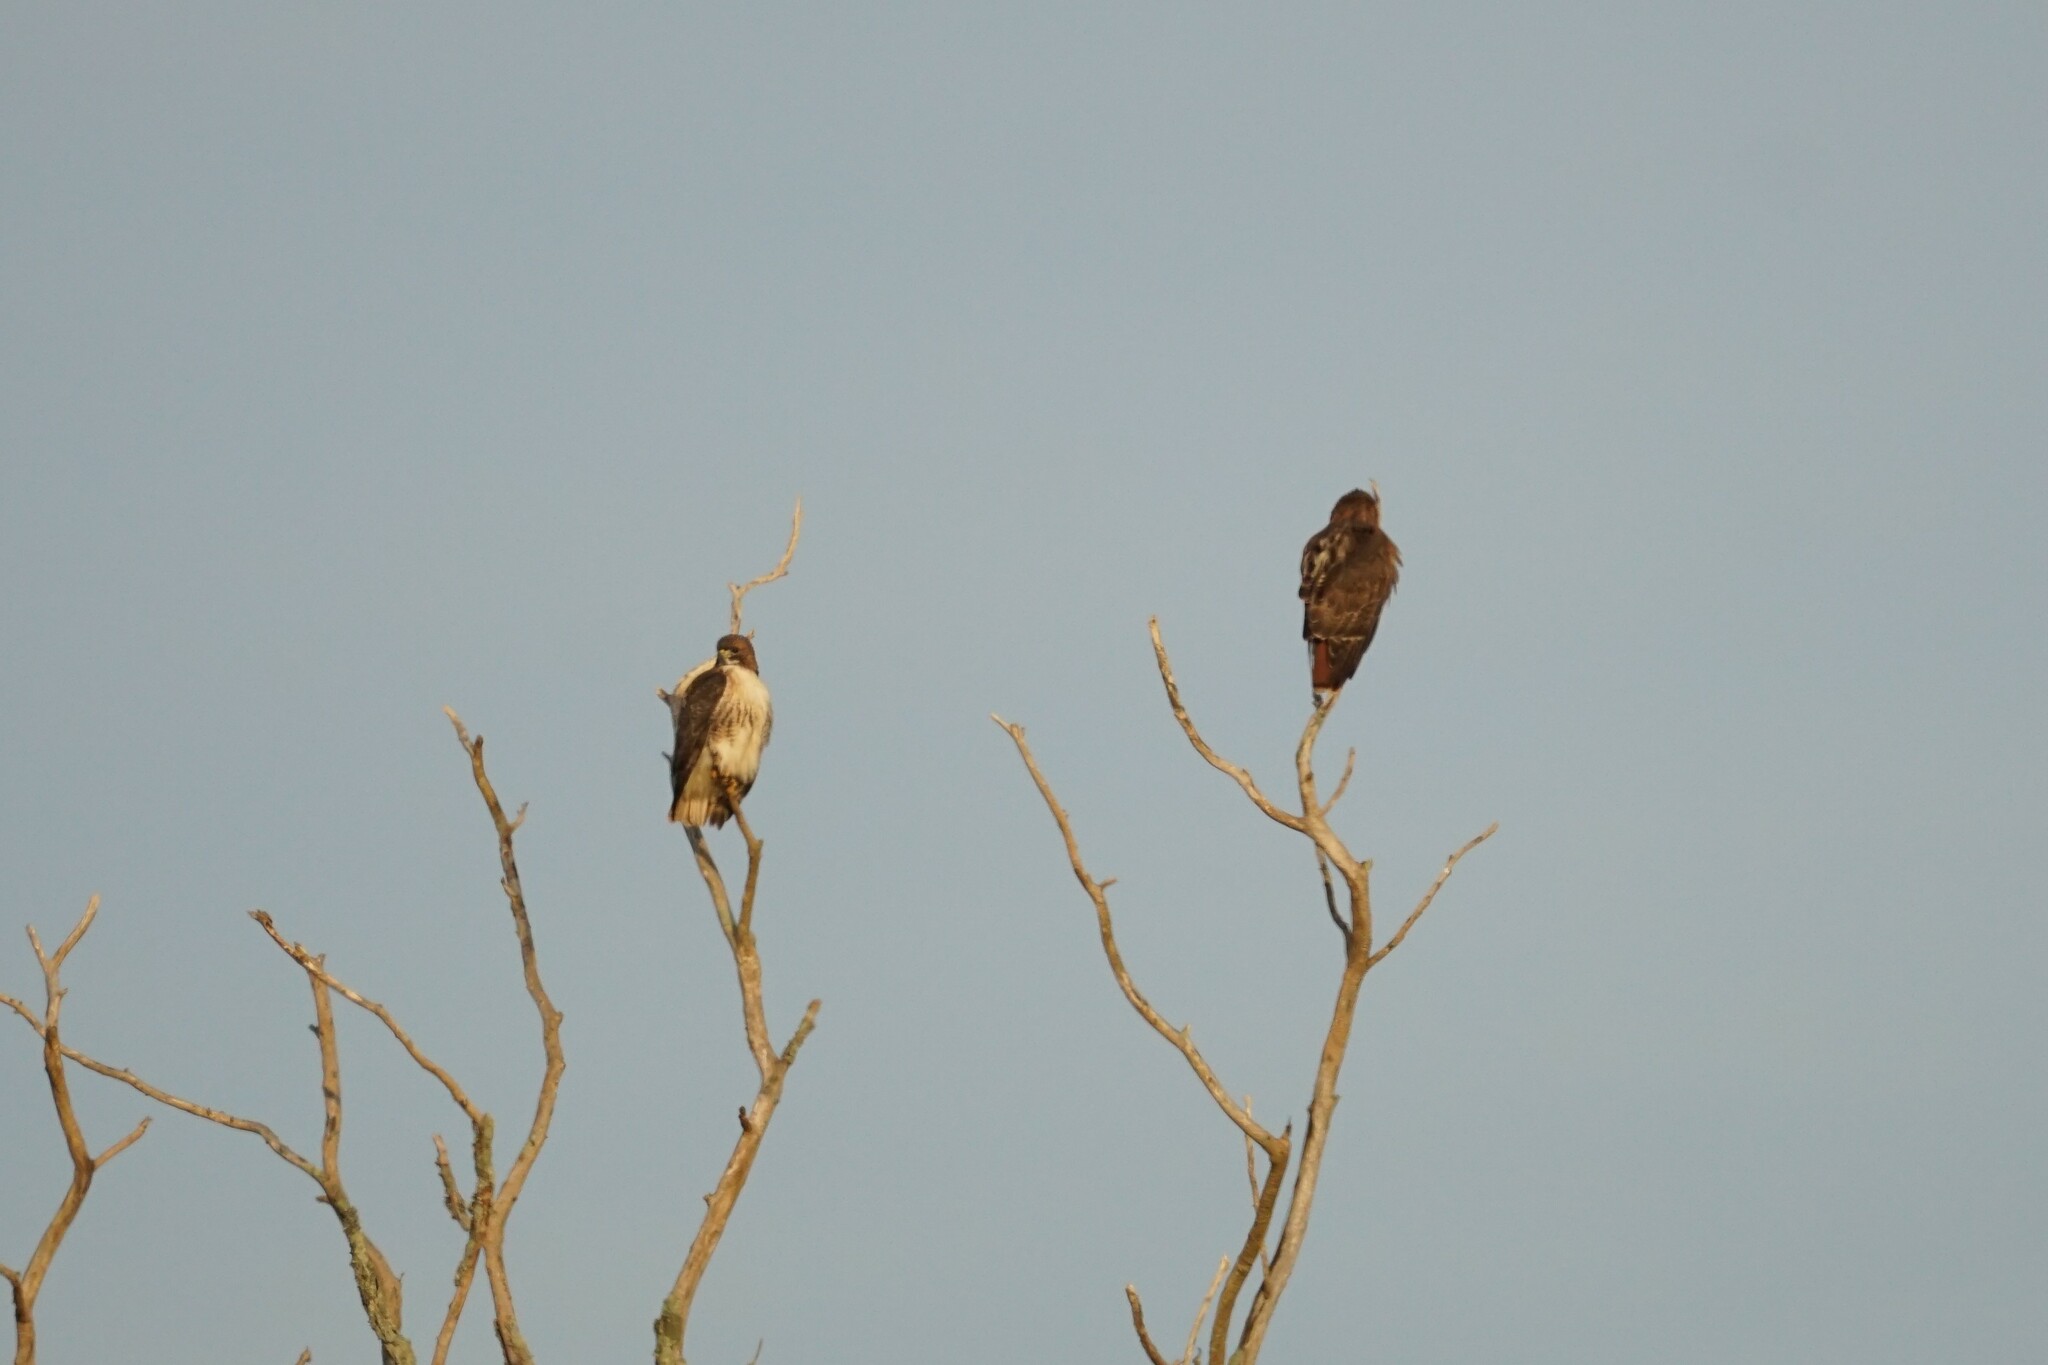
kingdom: Animalia
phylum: Chordata
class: Aves
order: Accipitriformes
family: Accipitridae
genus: Buteo
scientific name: Buteo jamaicensis
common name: Red-tailed hawk
